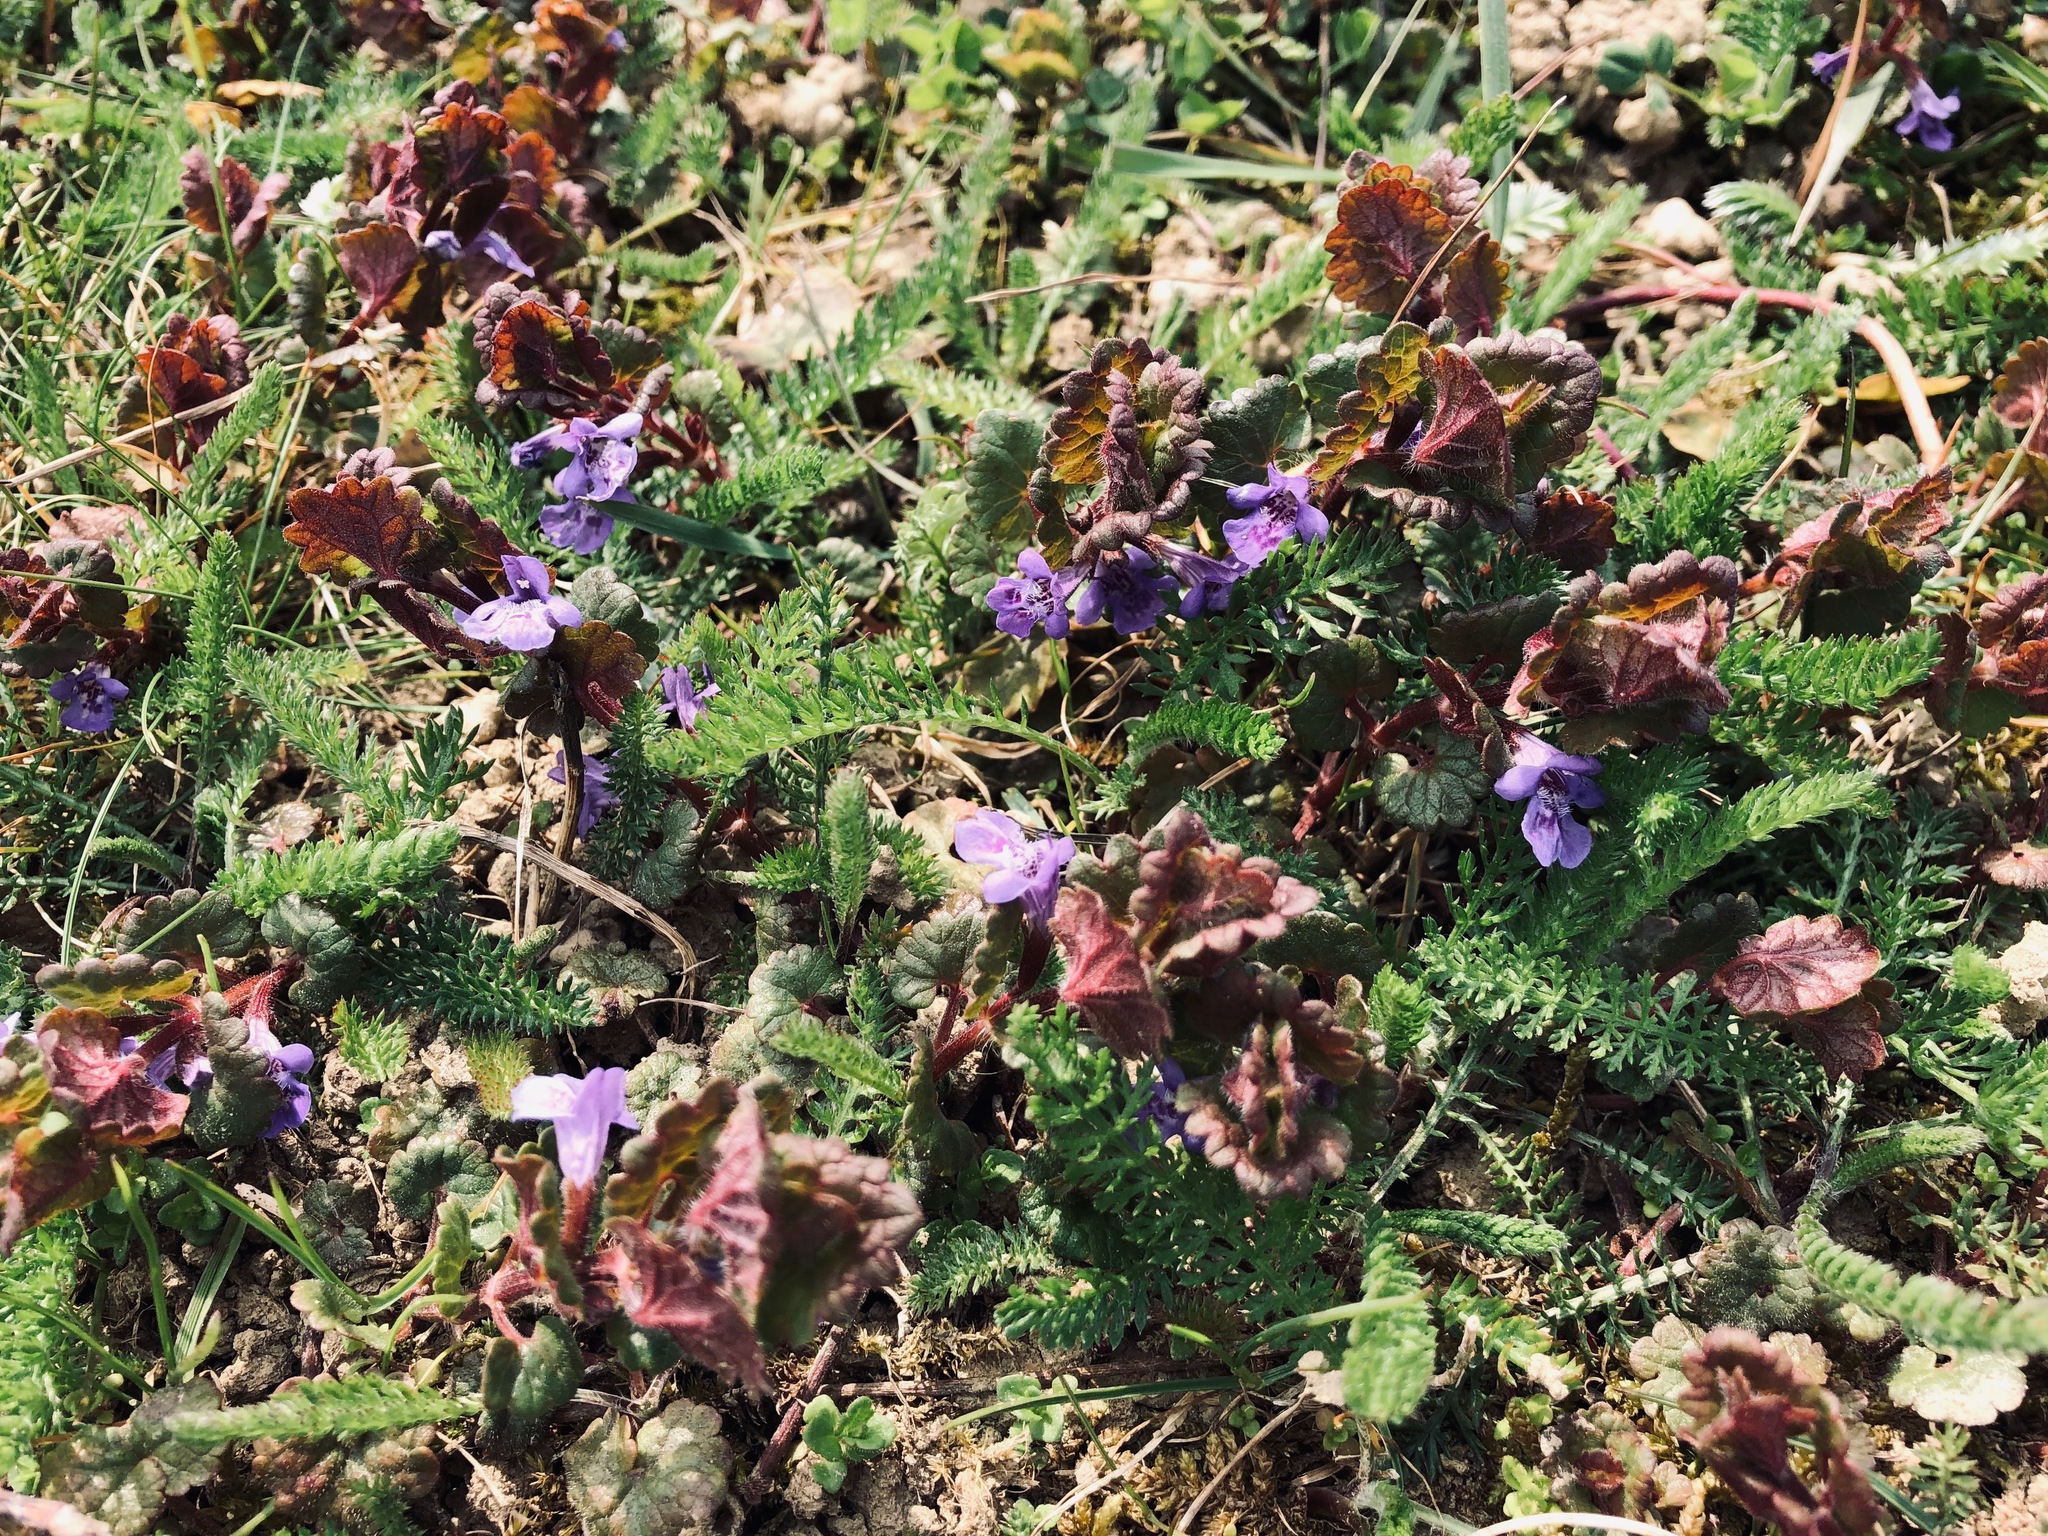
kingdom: Plantae
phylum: Tracheophyta
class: Magnoliopsida
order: Lamiales
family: Lamiaceae
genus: Glechoma
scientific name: Glechoma hederacea
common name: Ground ivy
